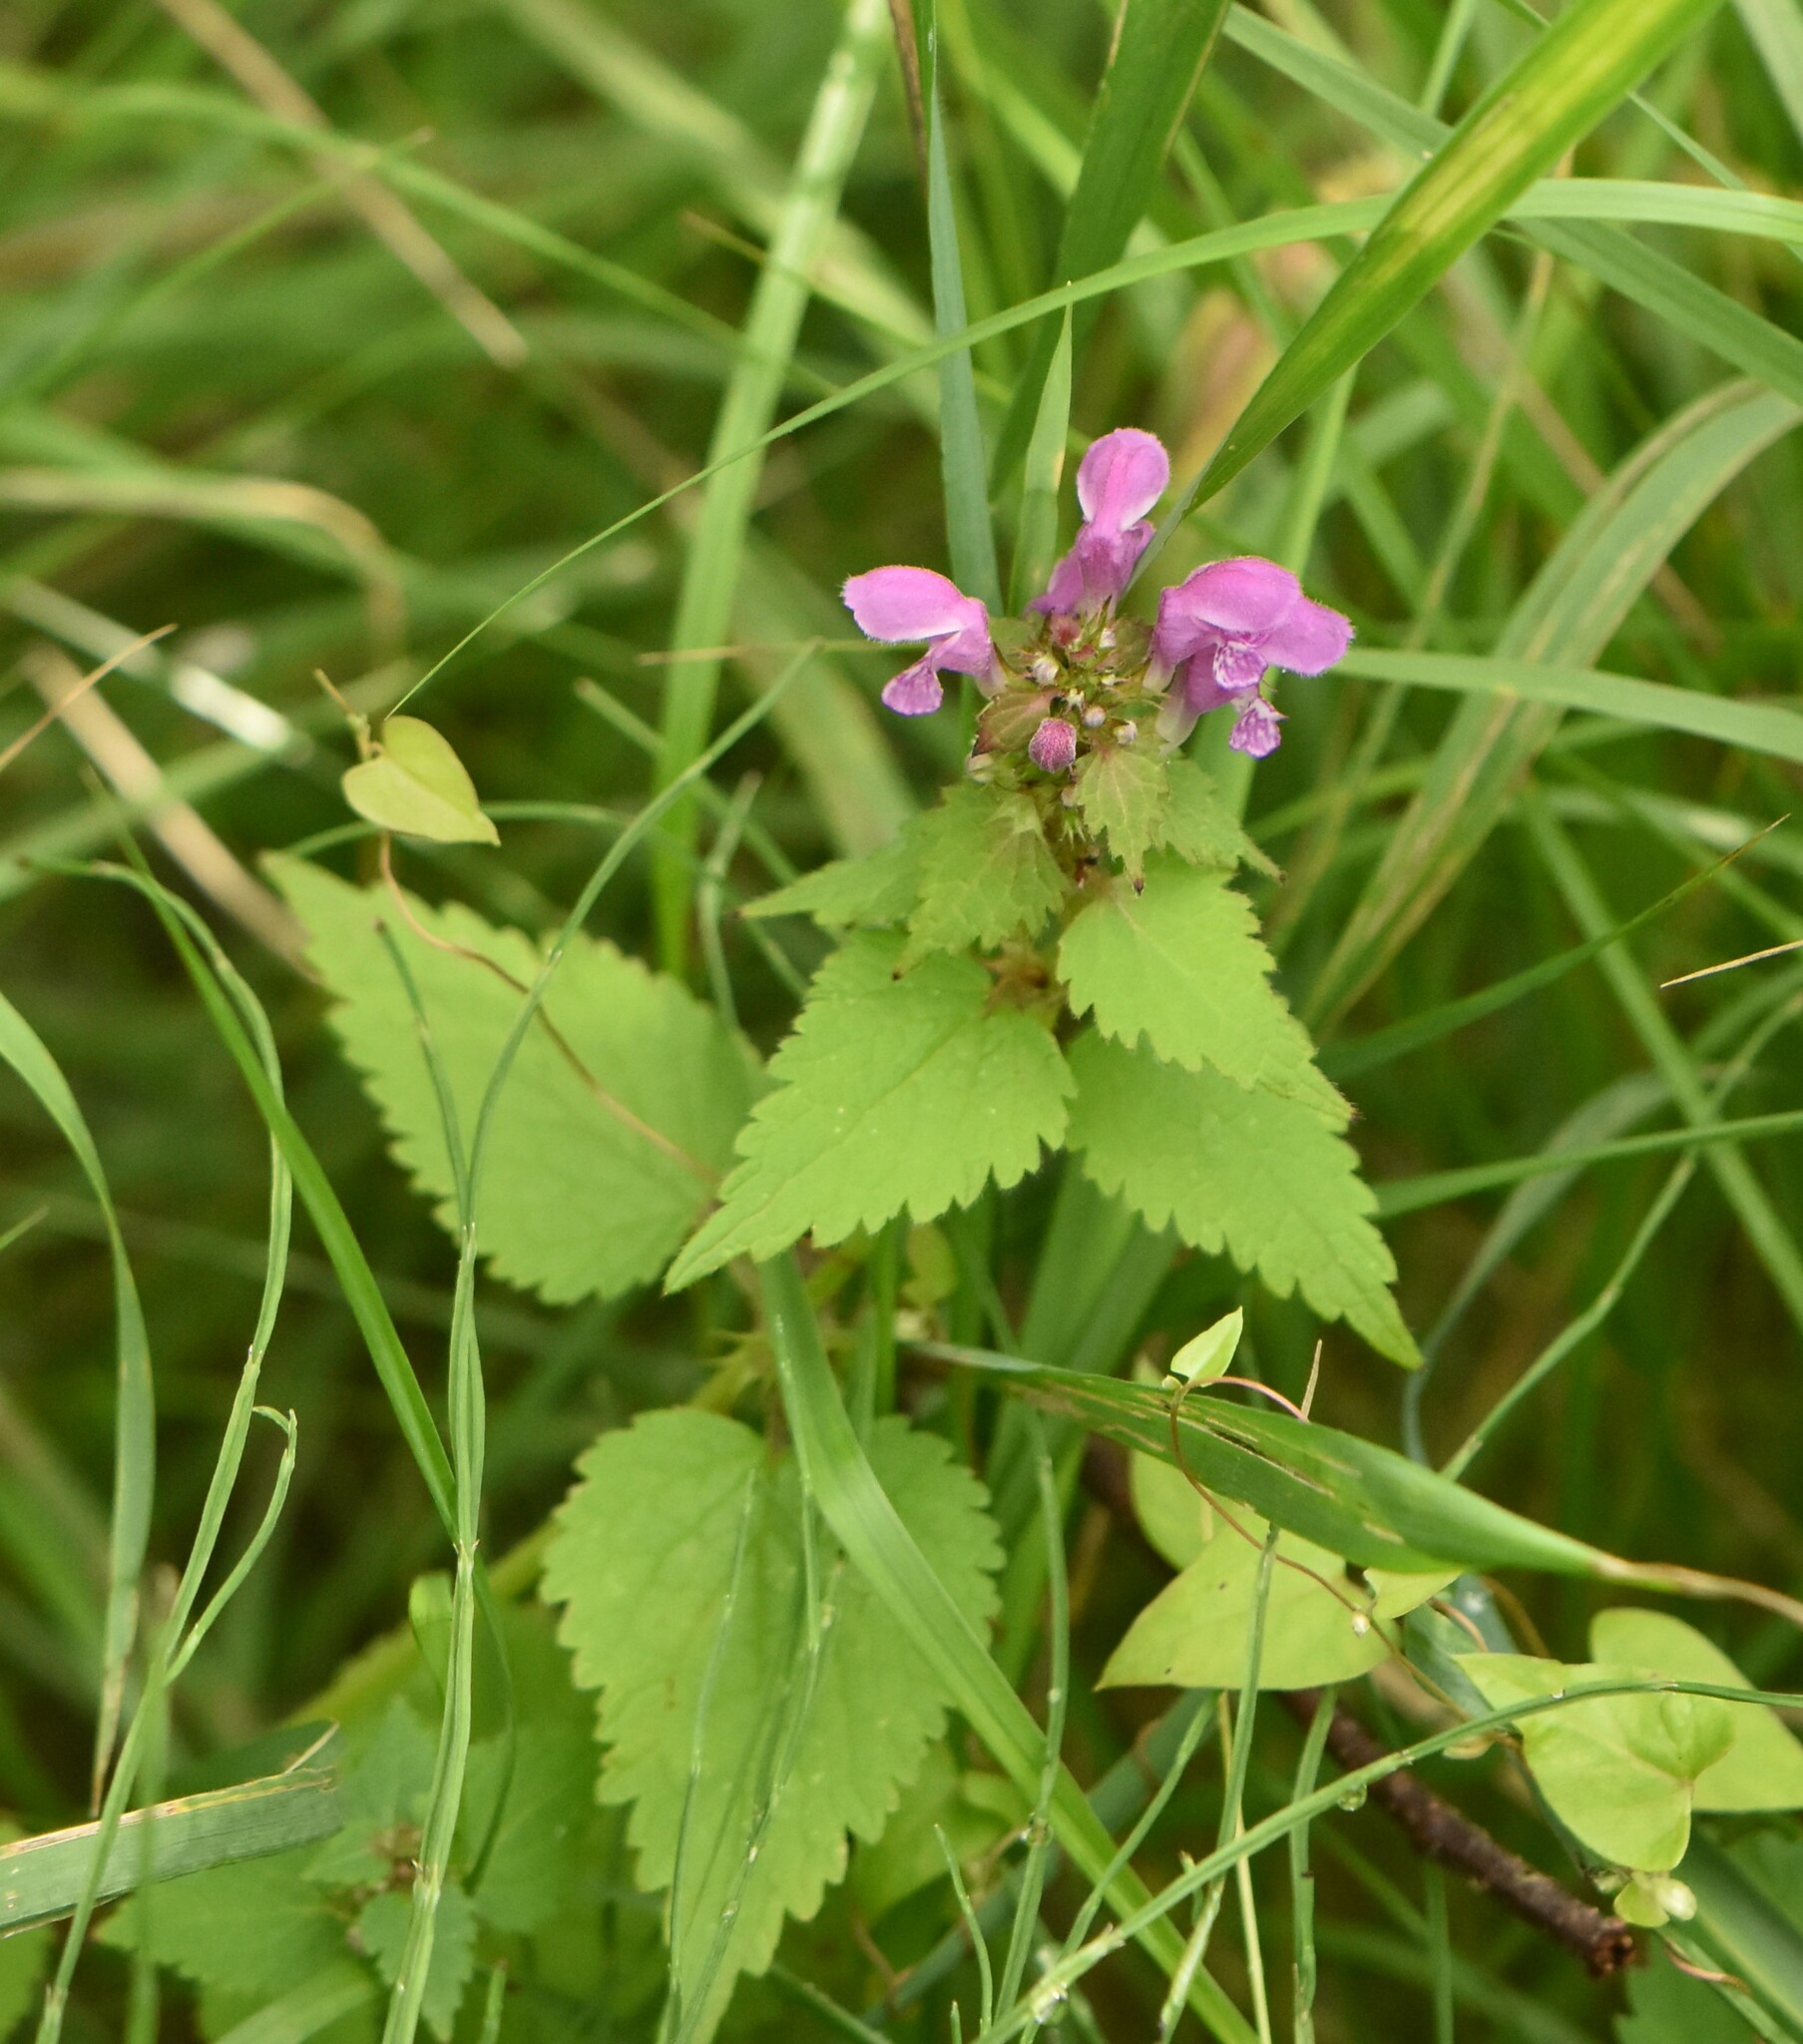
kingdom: Plantae
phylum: Tracheophyta
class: Magnoliopsida
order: Lamiales
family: Lamiaceae
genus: Lamium
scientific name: Lamium maculatum
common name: Spotted dead-nettle
